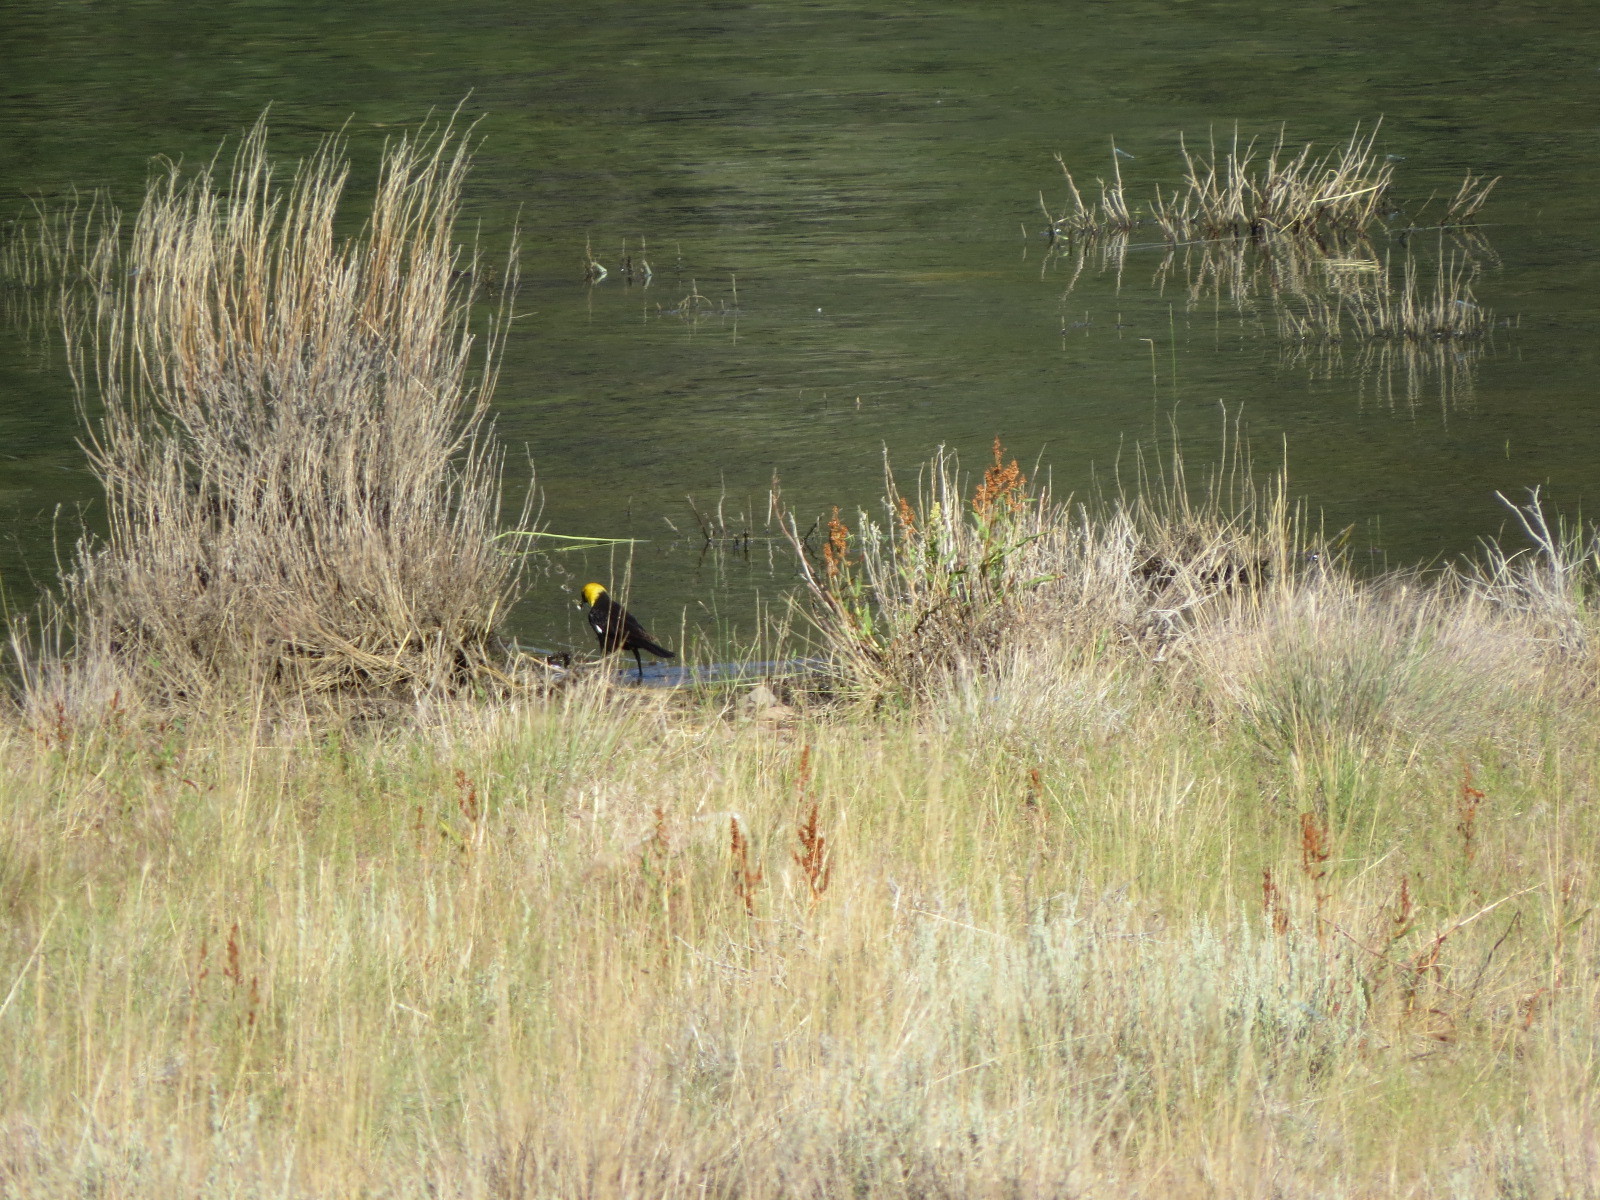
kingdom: Animalia
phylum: Chordata
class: Aves
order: Passeriformes
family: Icteridae
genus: Xanthocephalus
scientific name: Xanthocephalus xanthocephalus
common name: Yellow-headed blackbird
